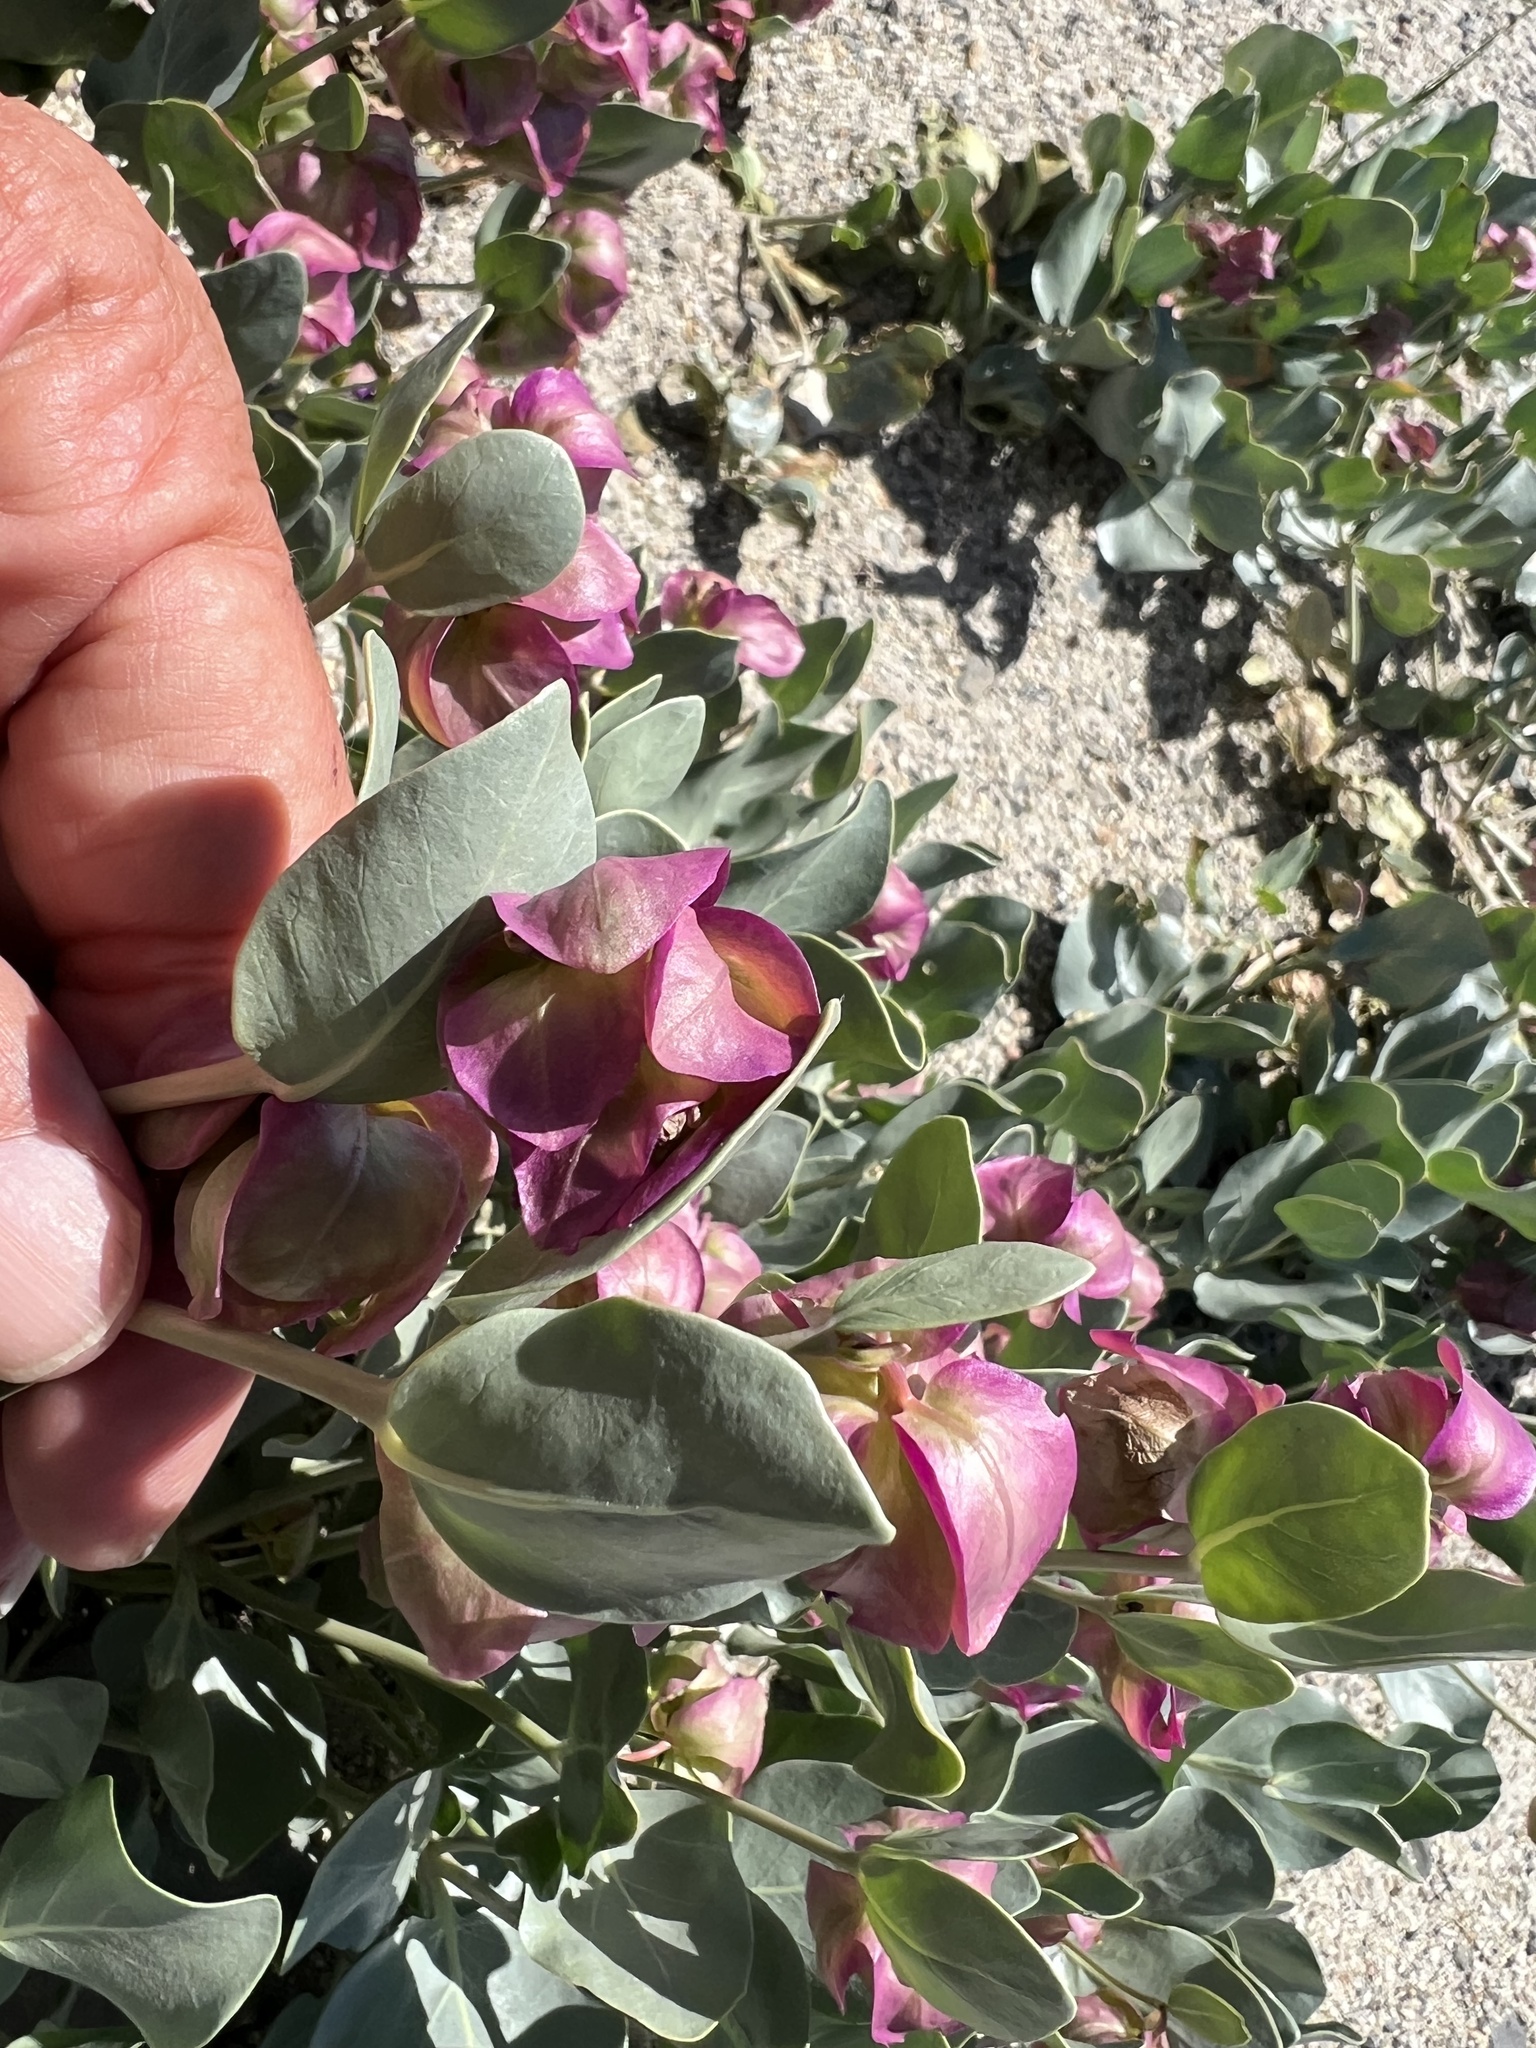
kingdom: Plantae
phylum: Tracheophyta
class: Magnoliopsida
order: Caryophyllales
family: Nyctaginaceae
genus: Mirabilis
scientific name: Mirabilis alipes
